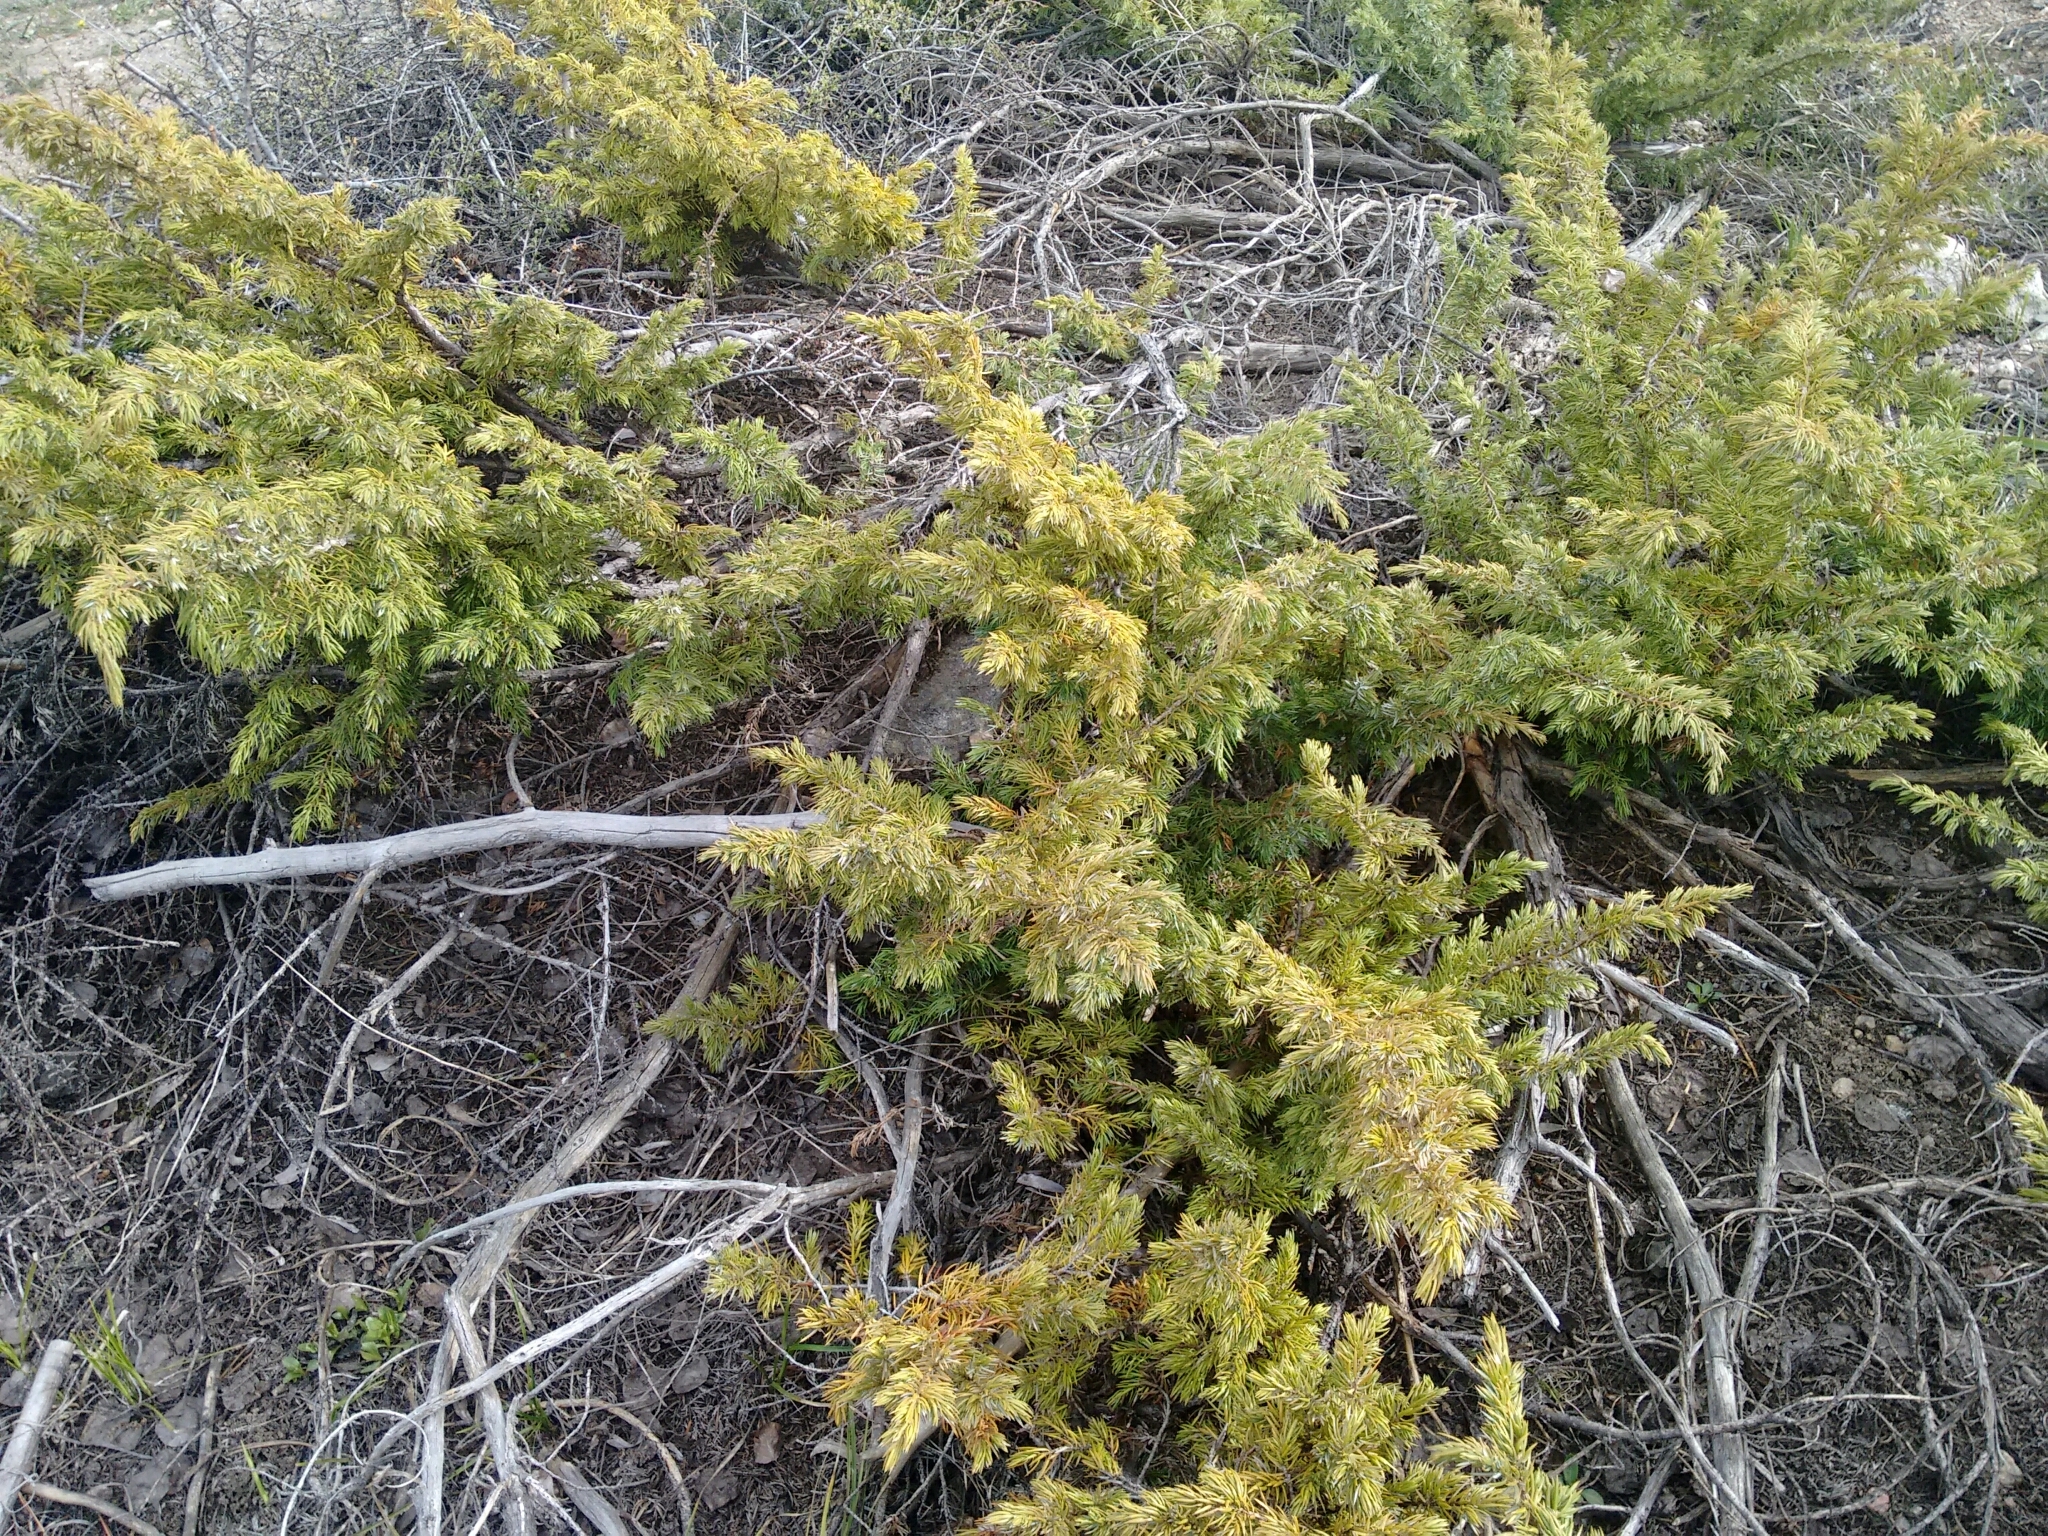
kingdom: Plantae
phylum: Tracheophyta
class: Pinopsida
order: Pinales
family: Cupressaceae
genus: Juniperus
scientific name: Juniperus communis
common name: Common juniper
